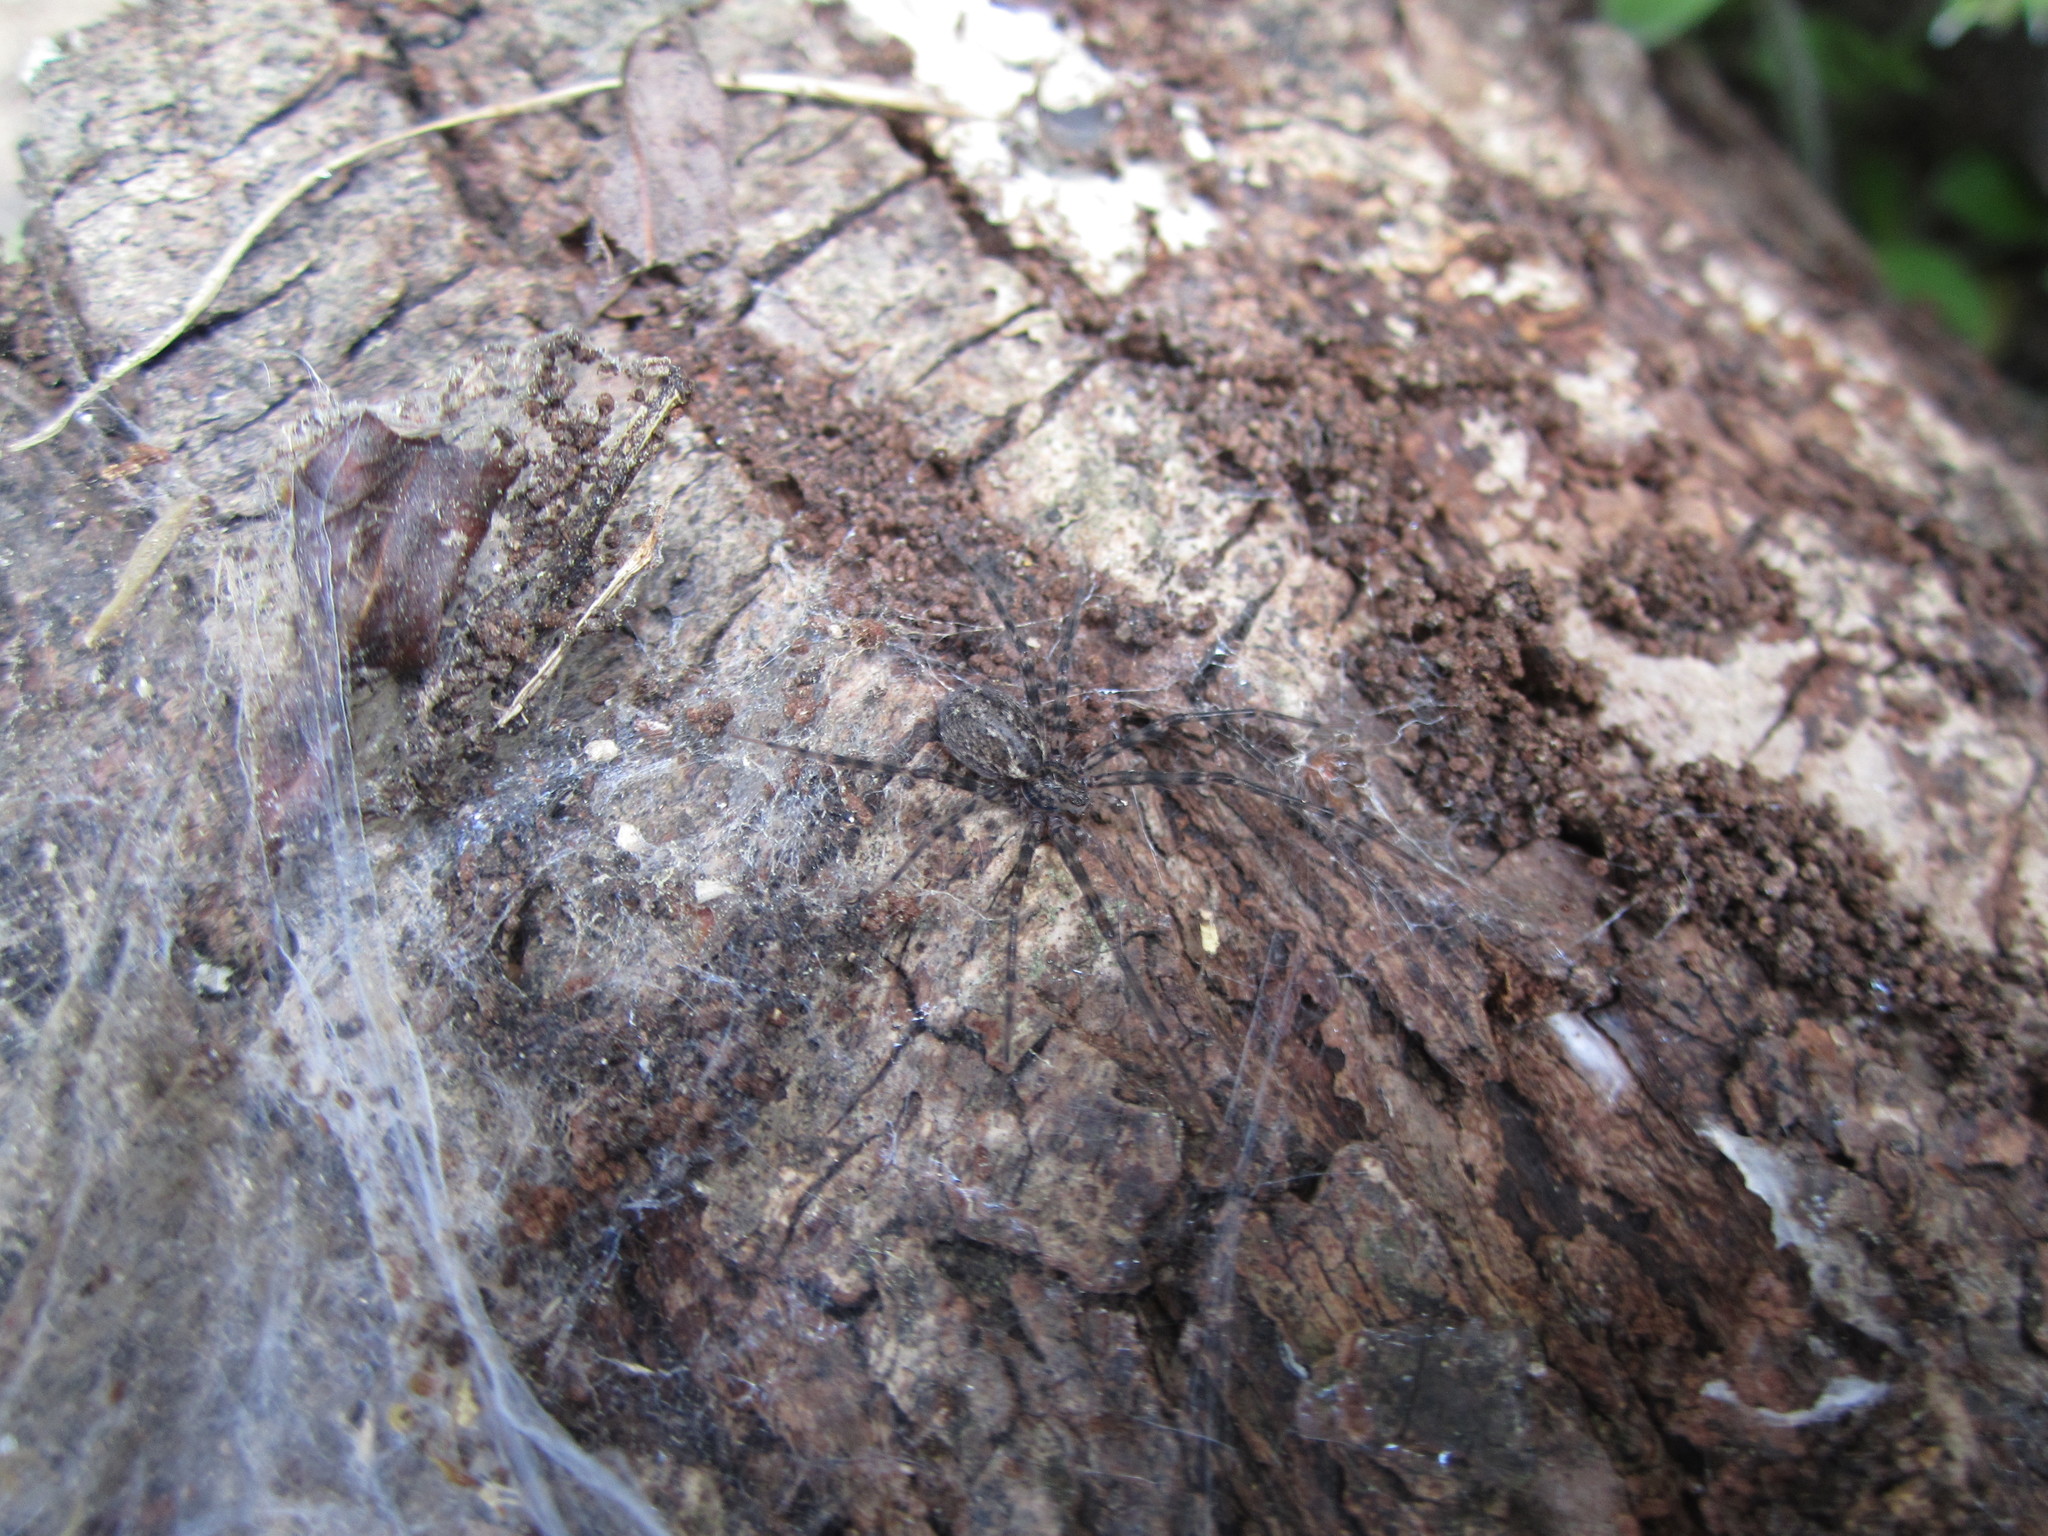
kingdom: Animalia
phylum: Arthropoda
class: Arachnida
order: Araneae
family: Stiphidiidae
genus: Stiphidion
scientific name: Stiphidion facetum
